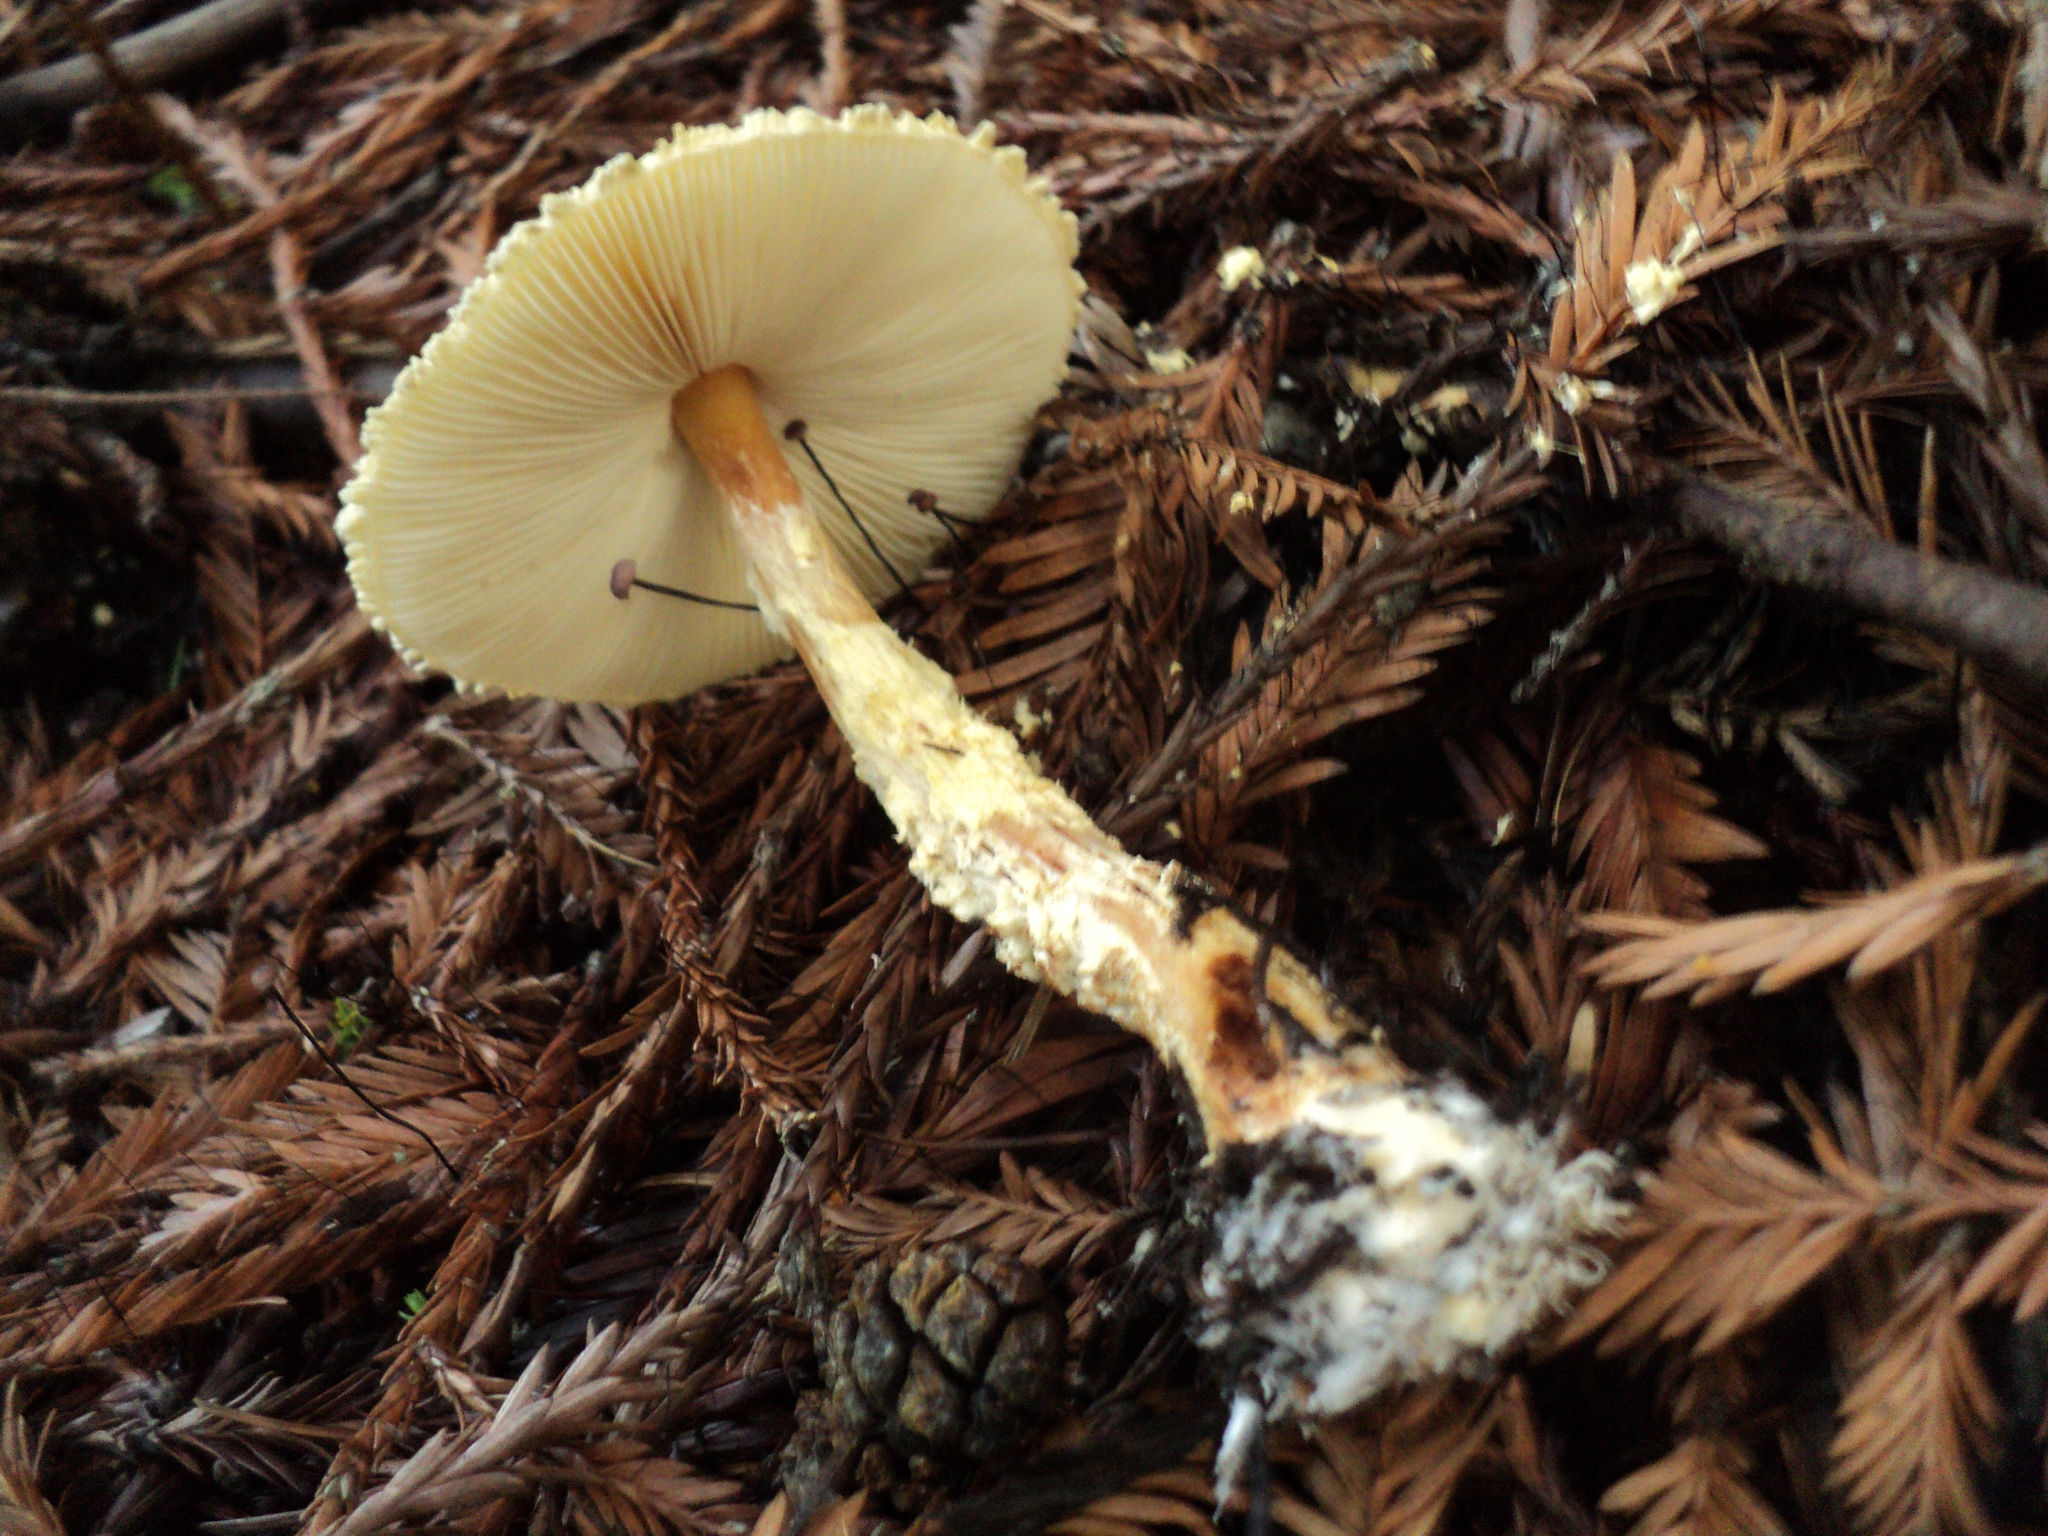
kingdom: Fungi
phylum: Basidiomycota
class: Agaricomycetes
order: Agaricales
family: Agaricaceae
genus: Lepiota
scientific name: Lepiota magnispora
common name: Yellowfoot dapperling
